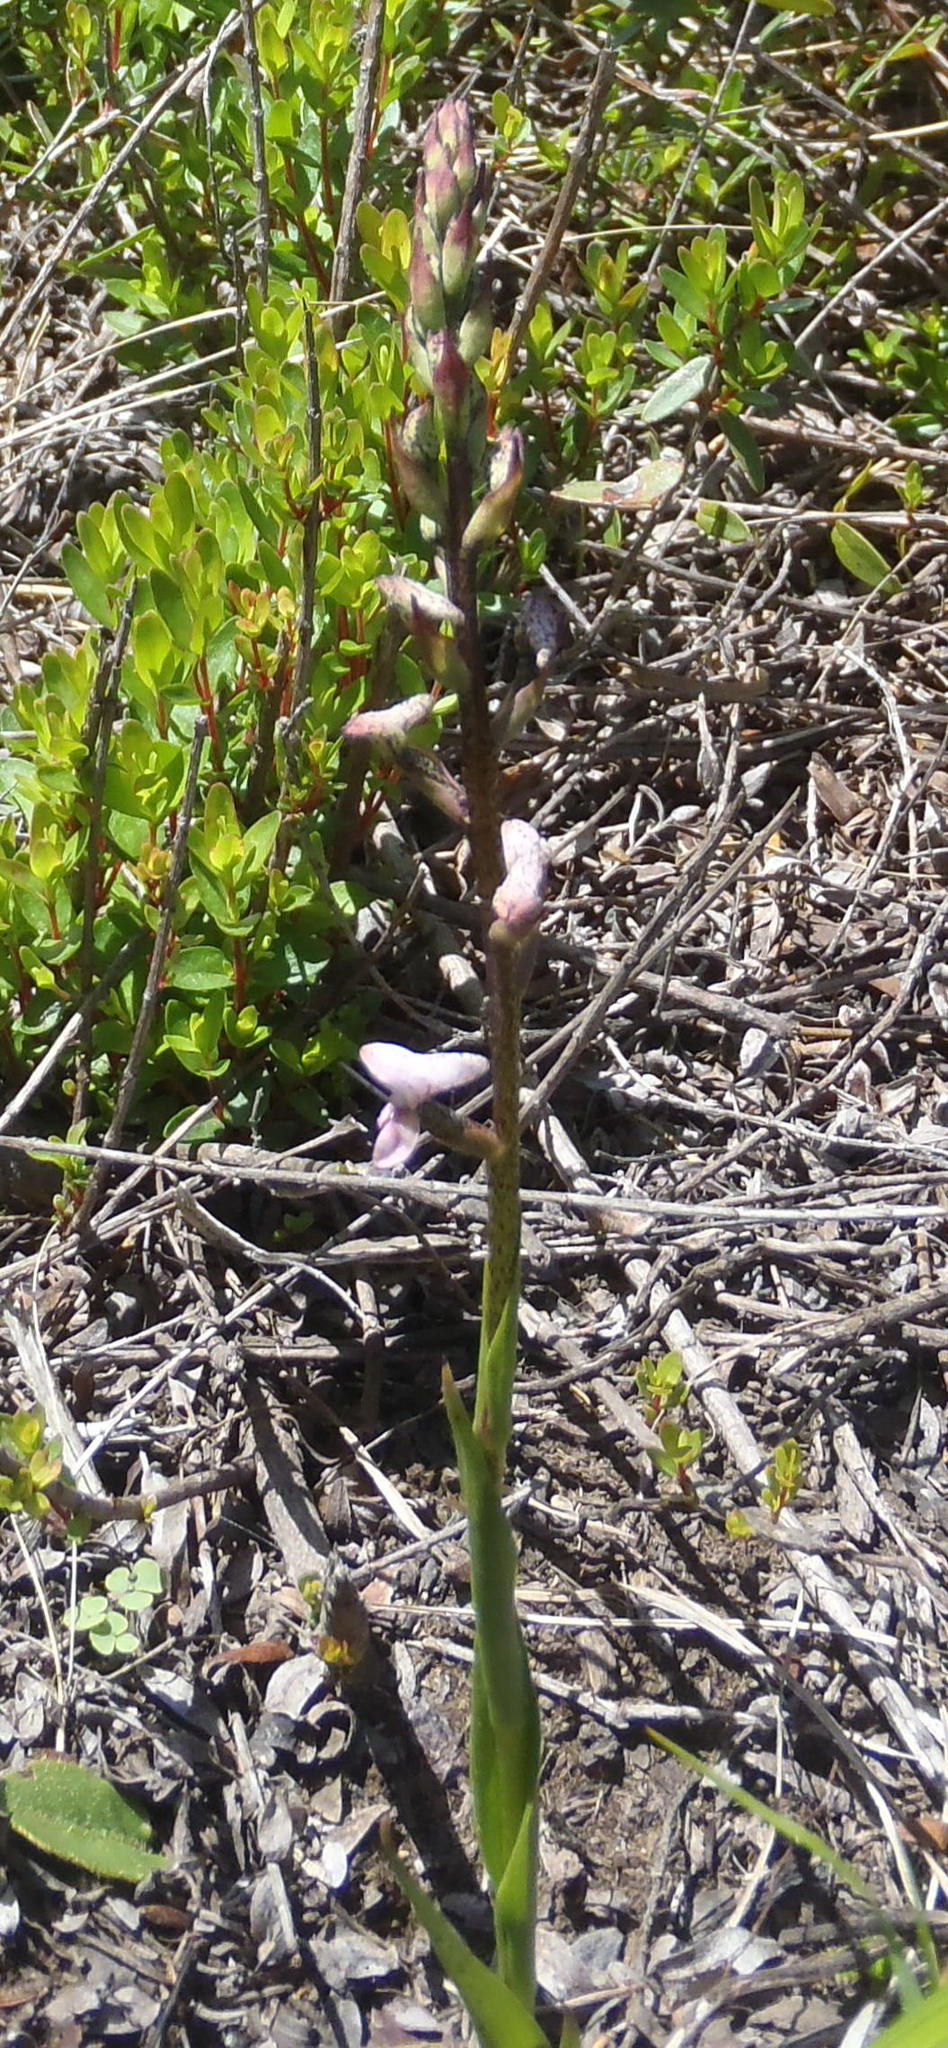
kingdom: Plantae
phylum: Tracheophyta
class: Liliopsida
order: Asparagales
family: Orchidaceae
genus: Disa
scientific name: Disa aconitoides
